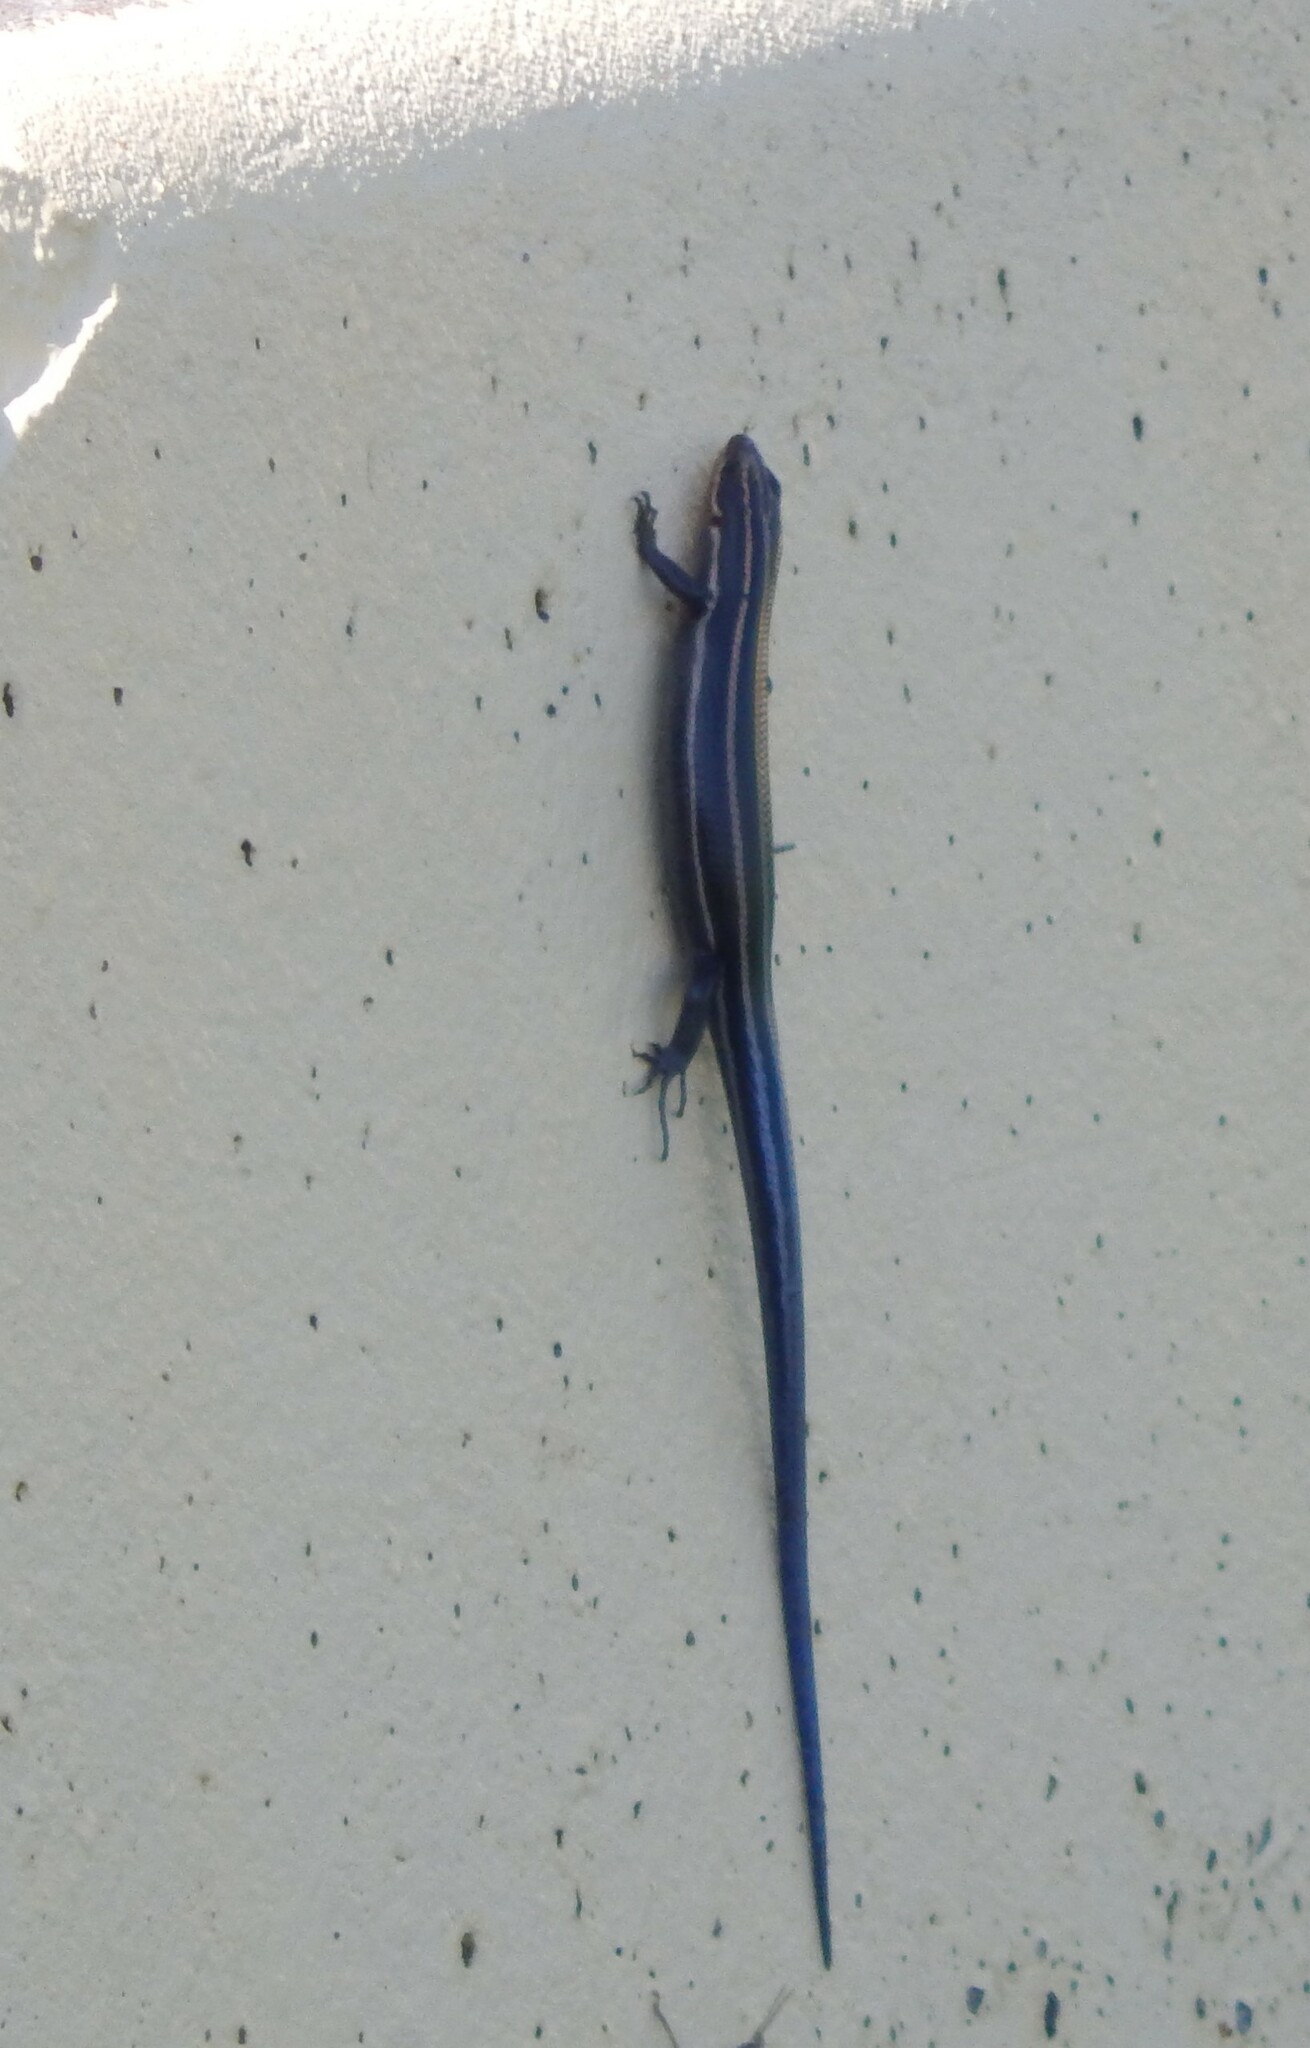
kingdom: Animalia
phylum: Chordata
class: Squamata
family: Scincidae
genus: Plestiodon
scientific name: Plestiodon
